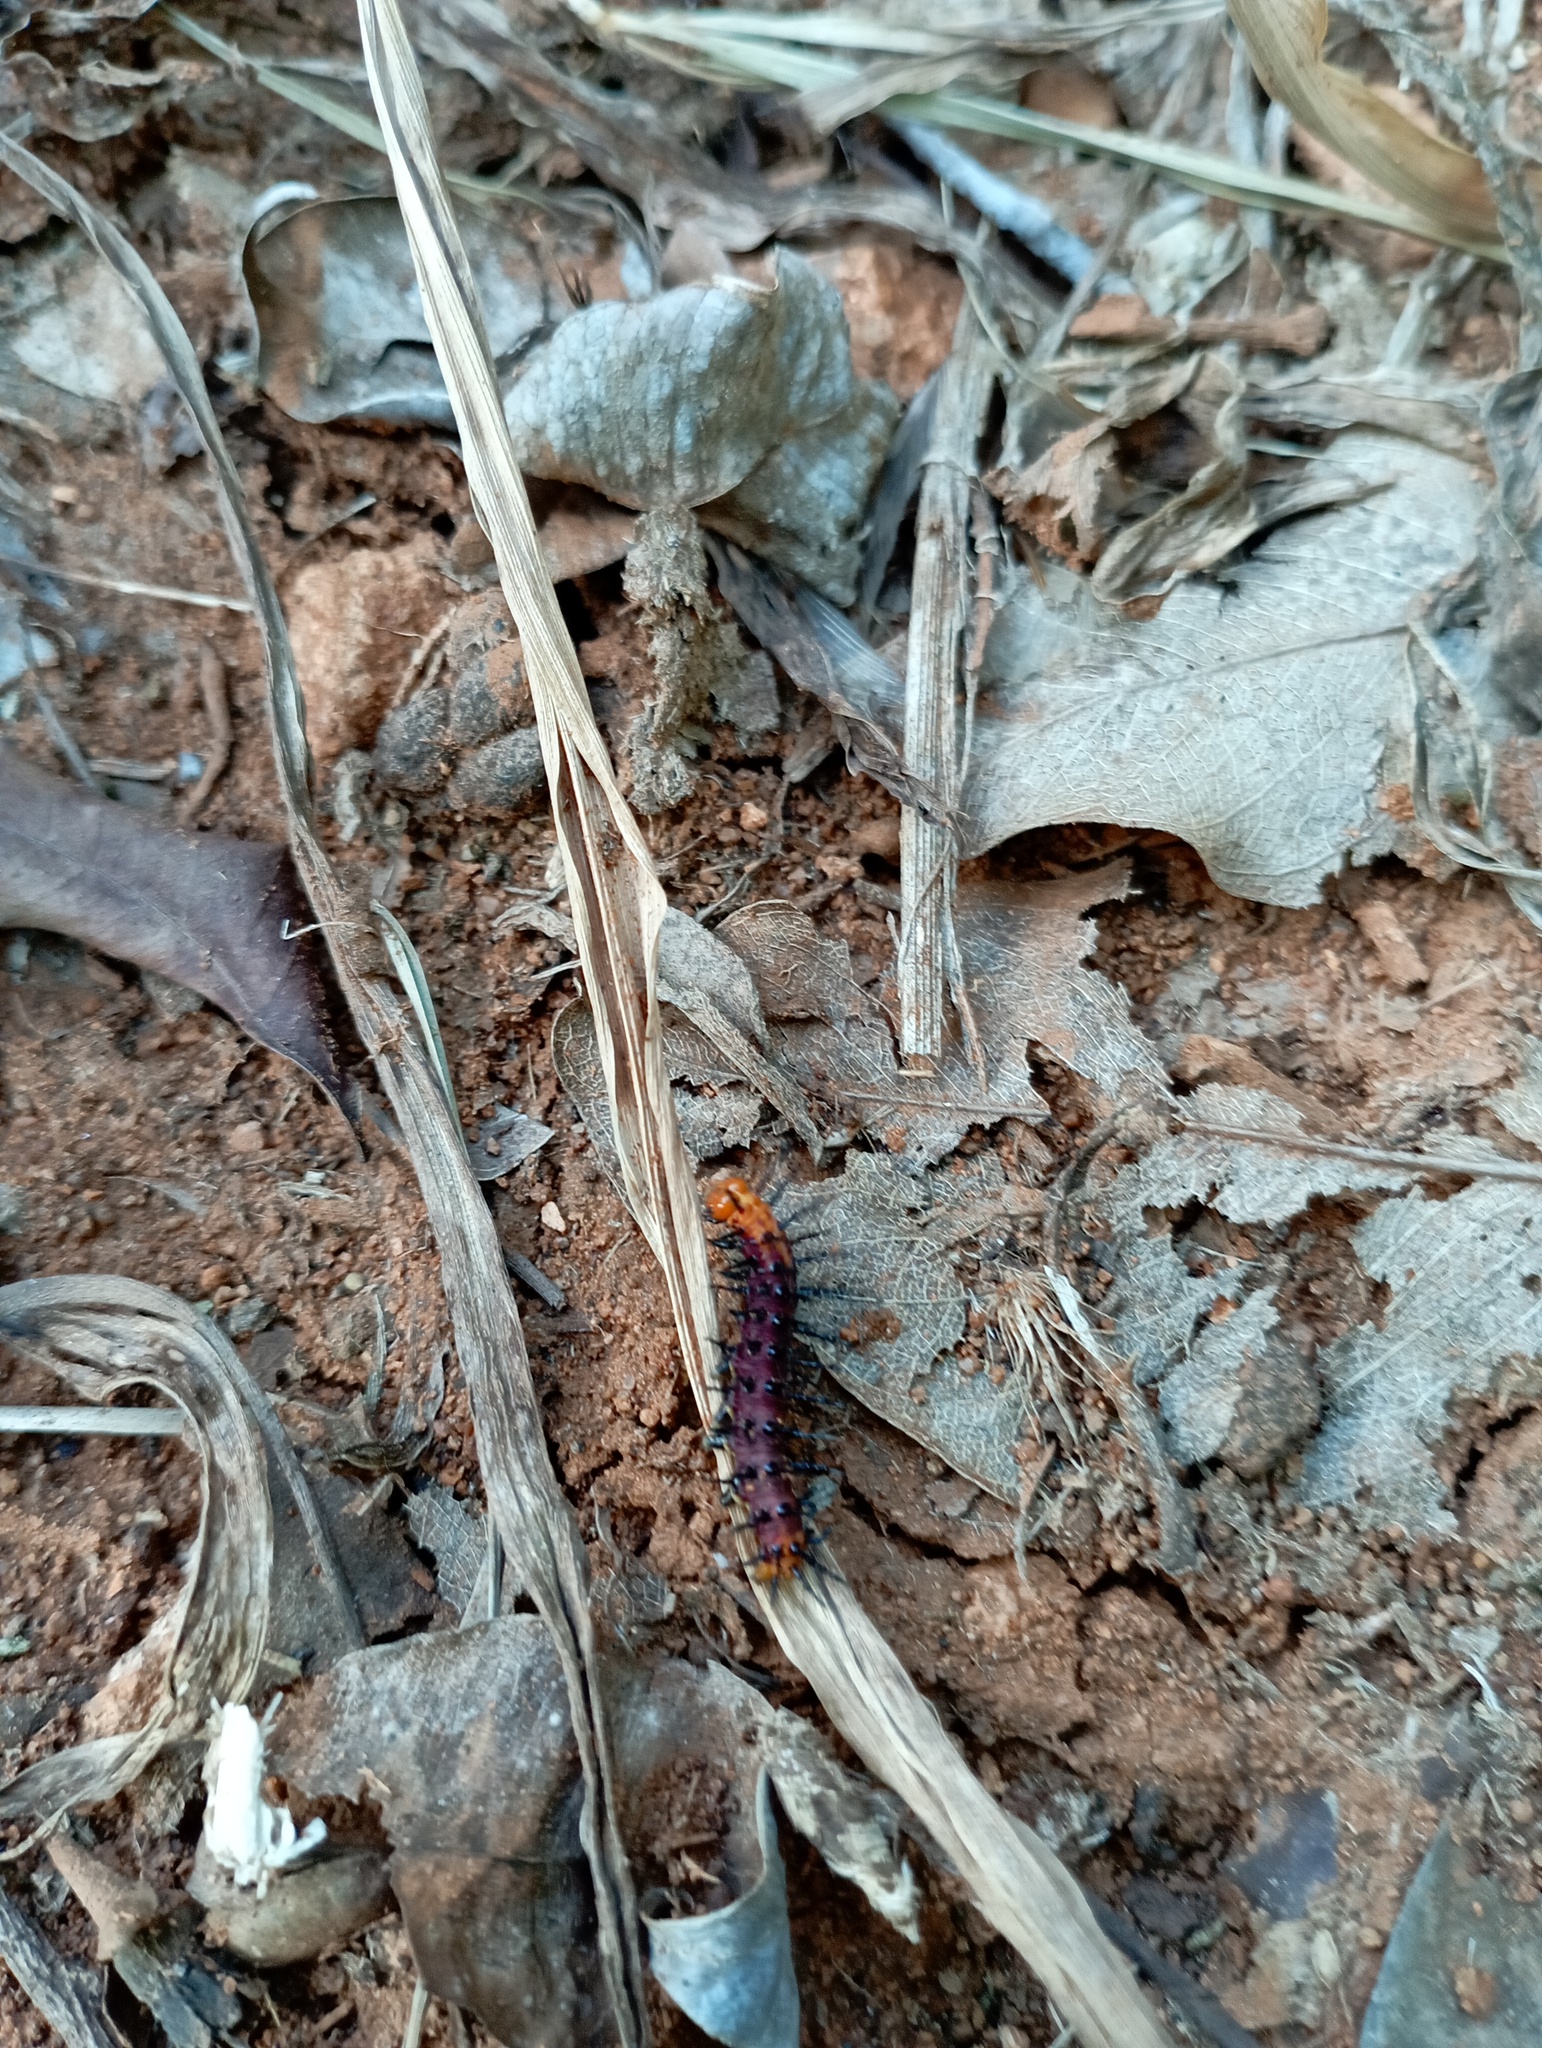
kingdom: Animalia
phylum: Arthropoda
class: Insecta
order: Lepidoptera
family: Nymphalidae
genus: Acraea
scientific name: Acraea terpsicore
